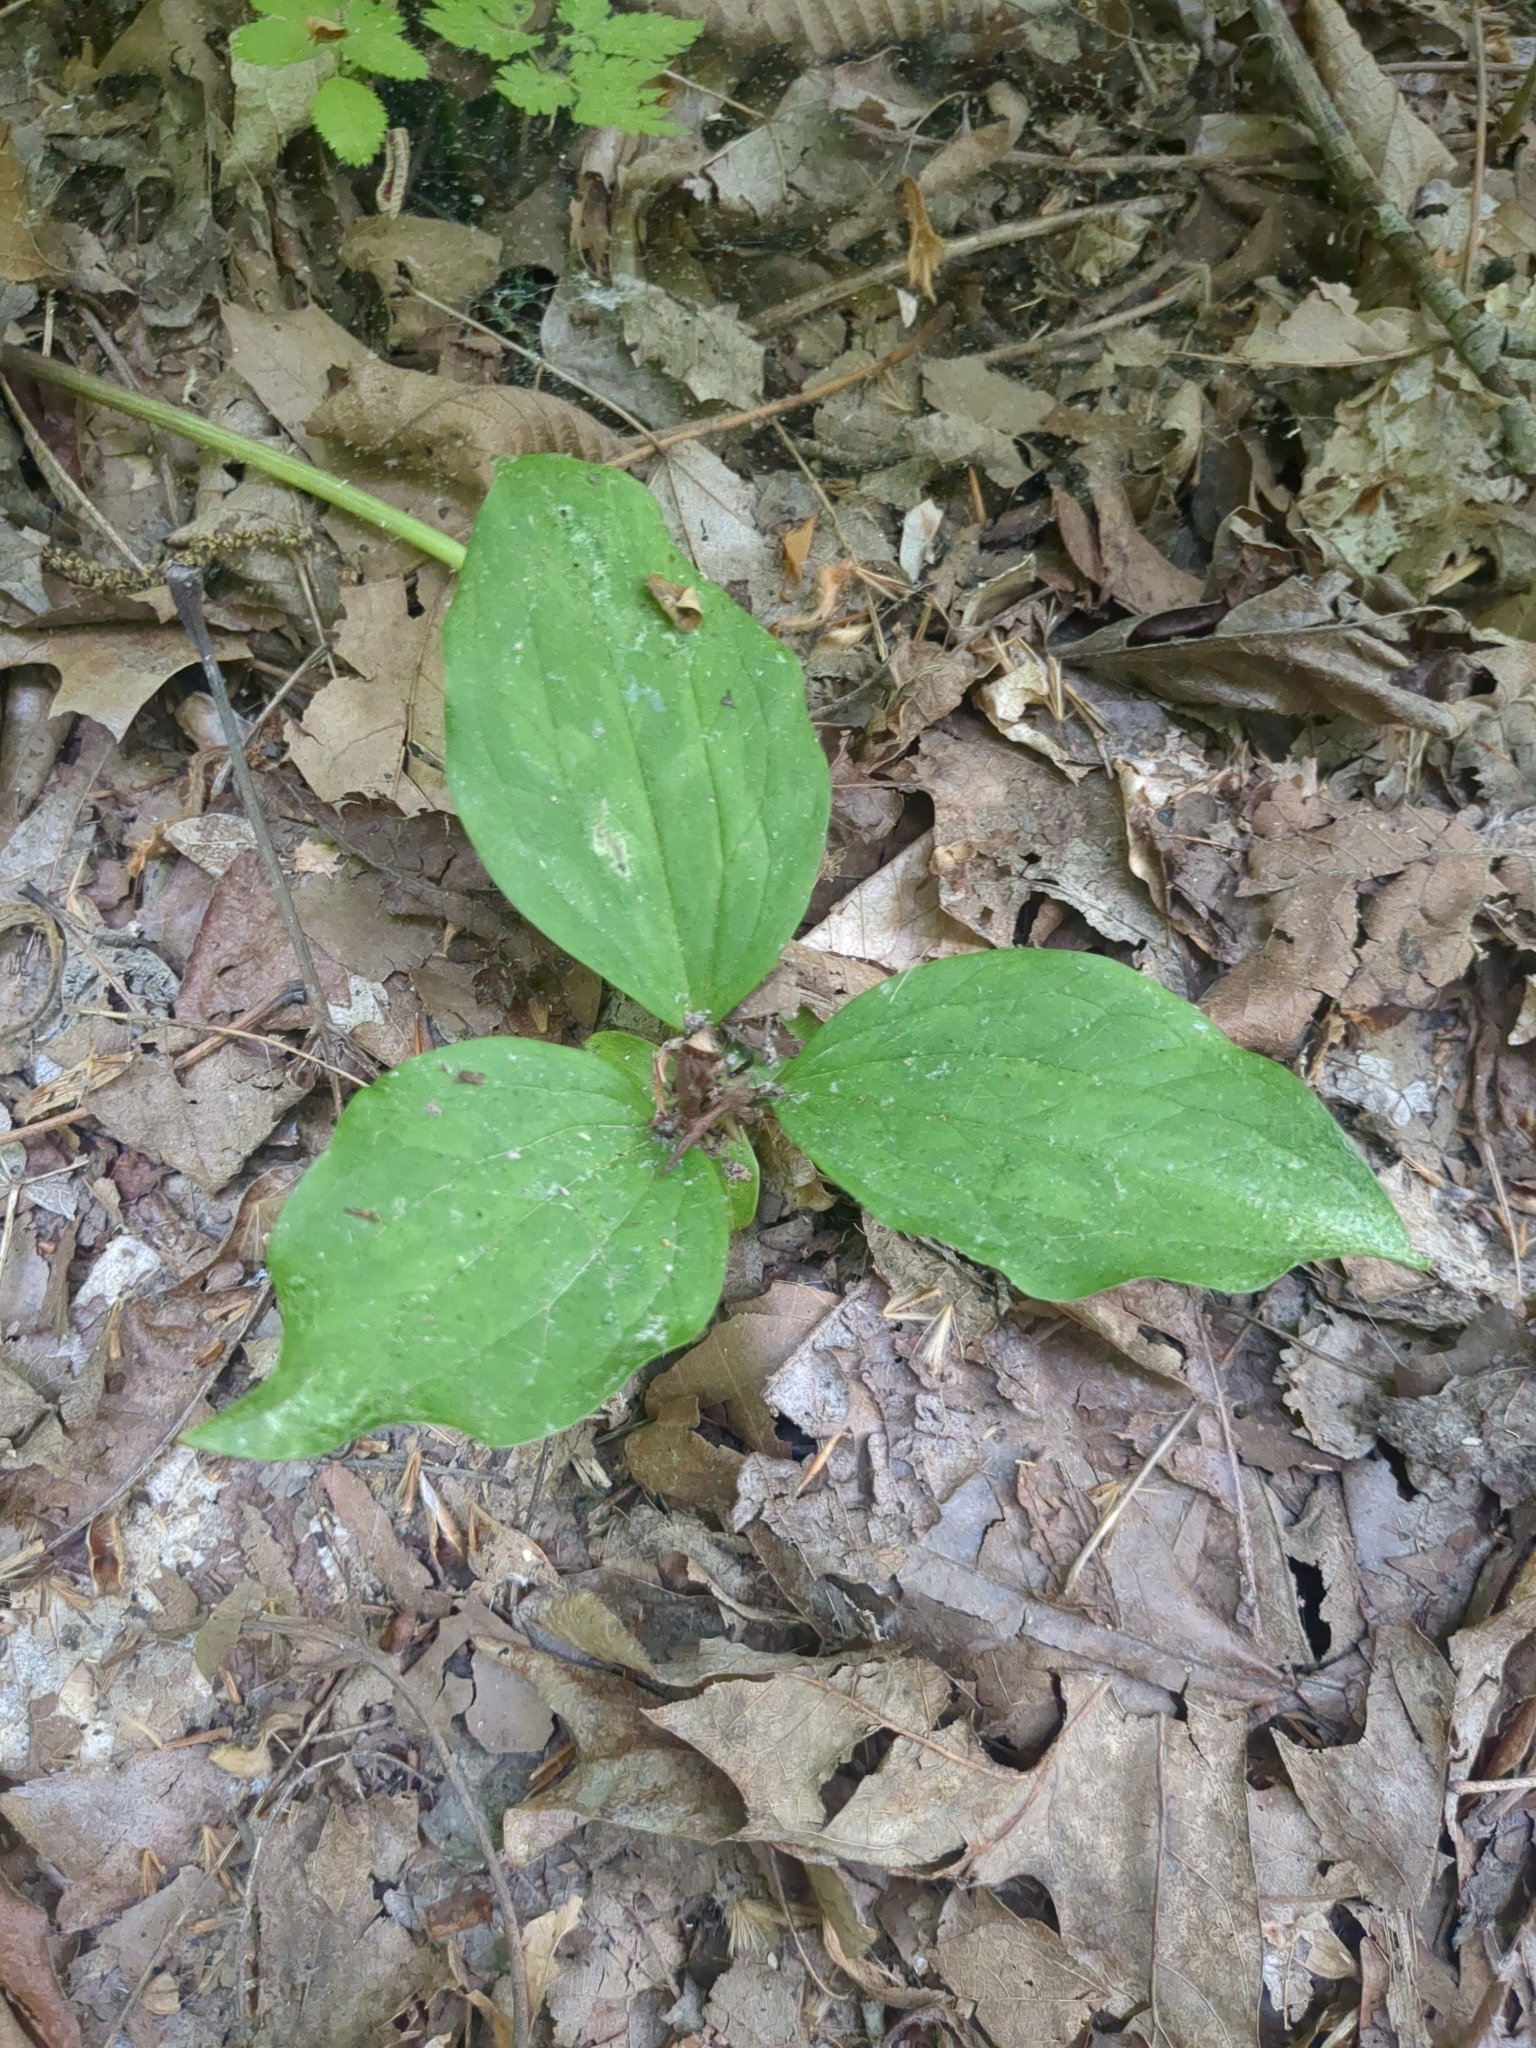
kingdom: Plantae
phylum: Tracheophyta
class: Liliopsida
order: Liliales
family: Melanthiaceae
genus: Trillium
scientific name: Trillium recurvatum
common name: Bloody butcher
